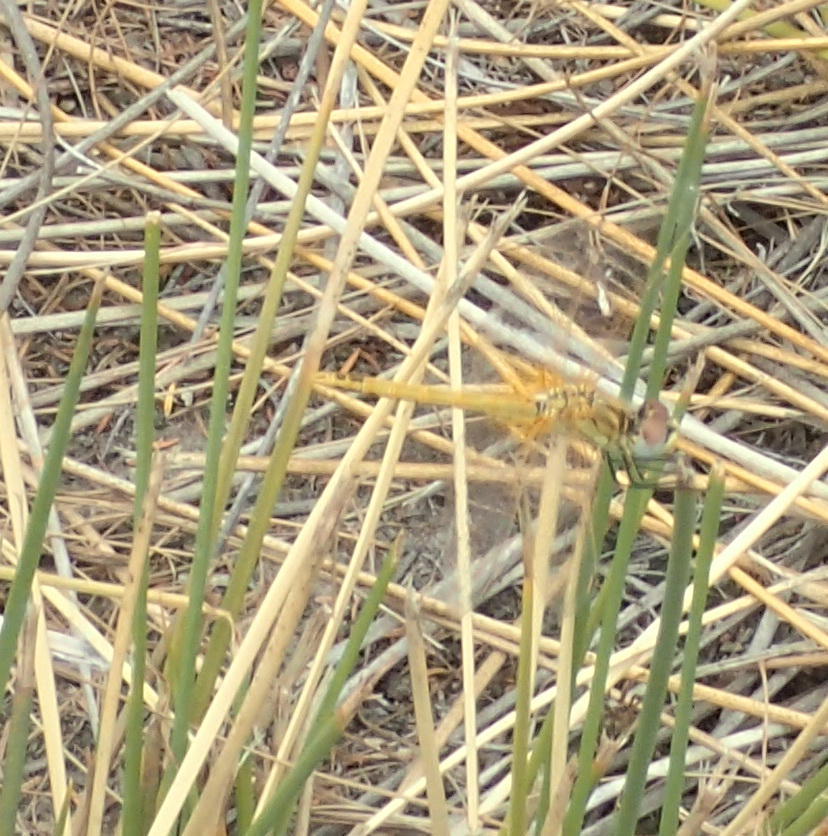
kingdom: Animalia
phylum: Arthropoda
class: Insecta
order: Odonata
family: Libellulidae
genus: Sympetrum
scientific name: Sympetrum fonscolombii
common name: Red-veined darter
